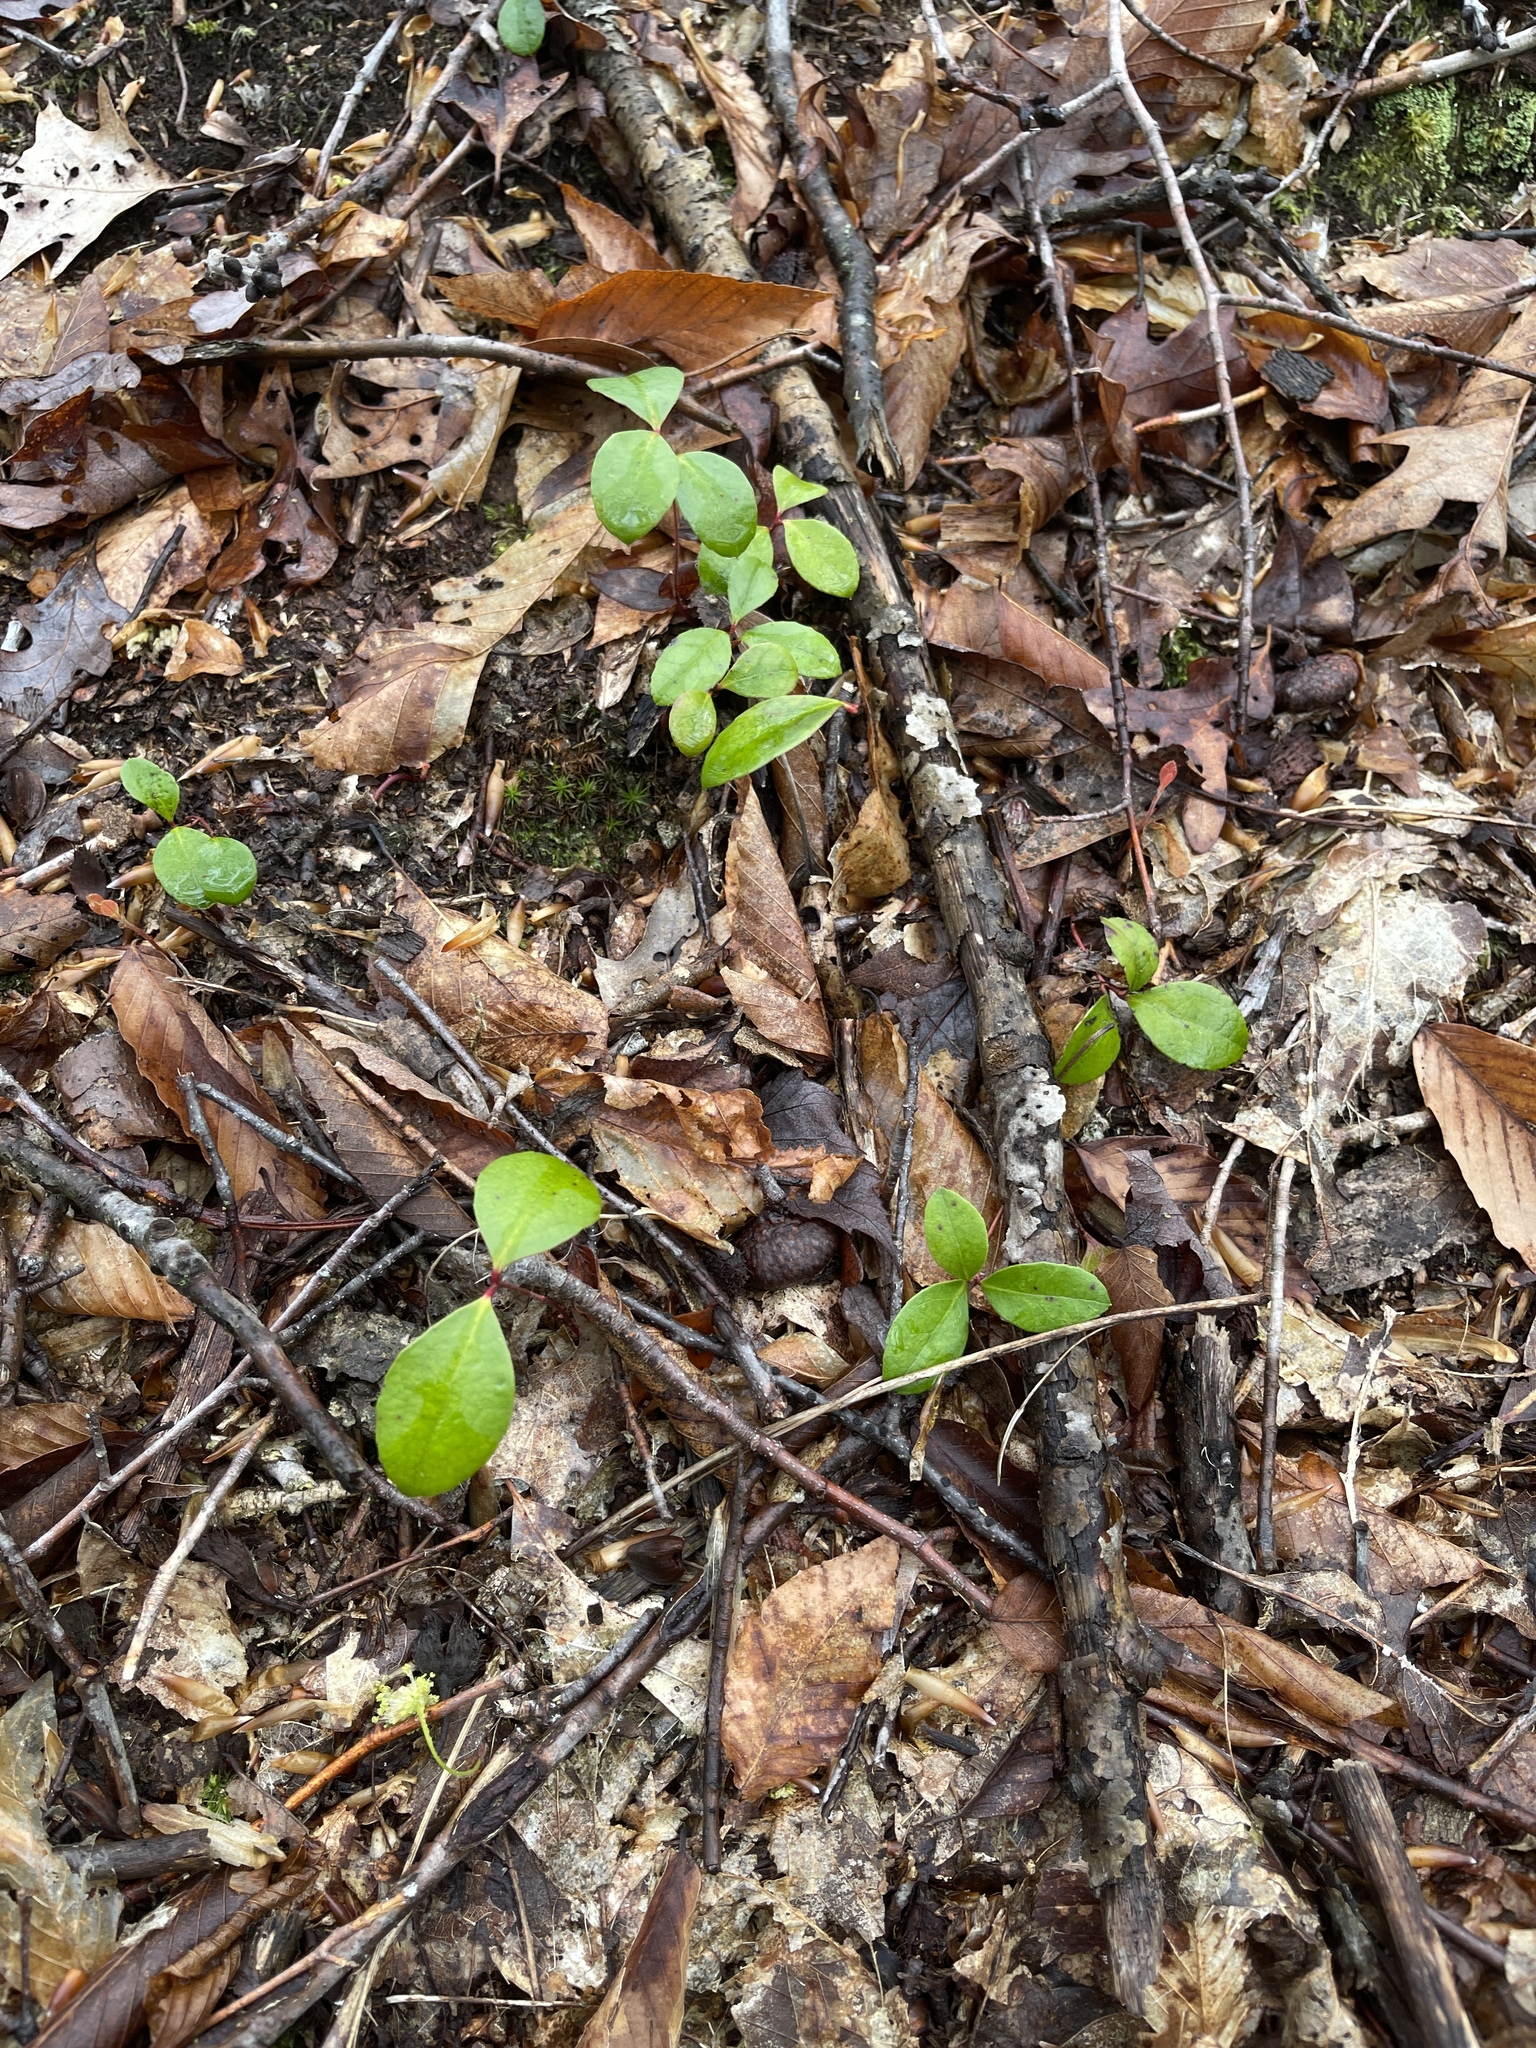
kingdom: Plantae
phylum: Tracheophyta
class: Magnoliopsida
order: Ericales
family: Ericaceae
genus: Gaultheria
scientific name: Gaultheria procumbens
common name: Checkerberry
